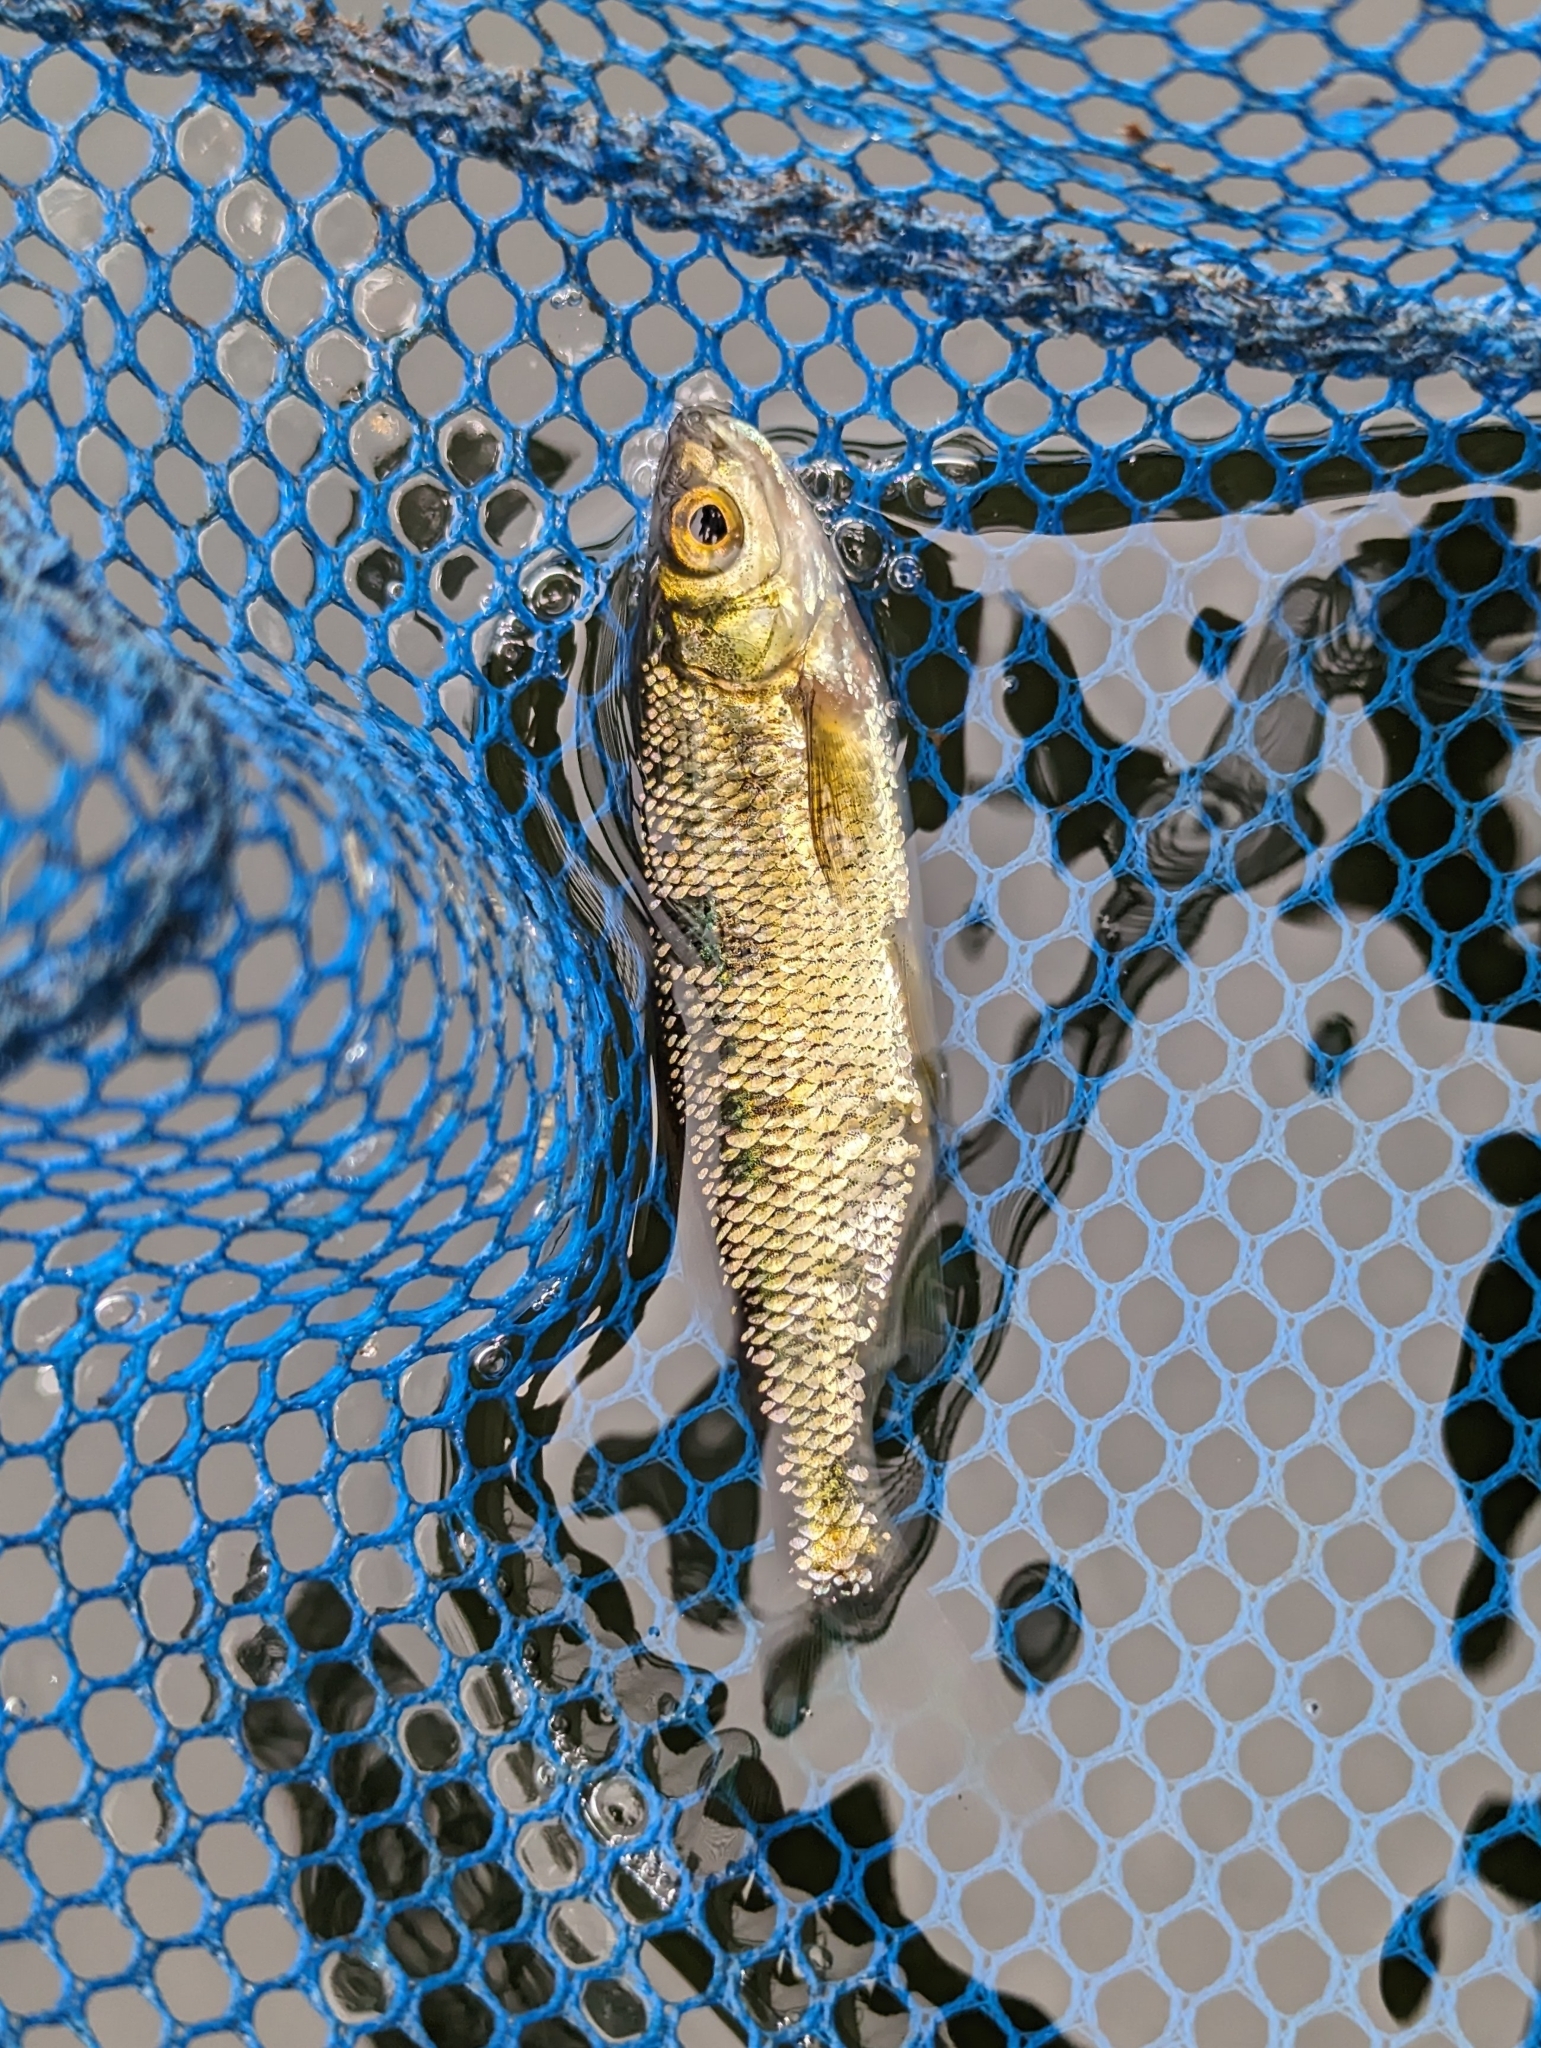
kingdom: Animalia
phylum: Chordata
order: Cypriniformes
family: Cyprinidae
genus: Notemigonus
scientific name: Notemigonus crysoleucas
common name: Golden shiner
